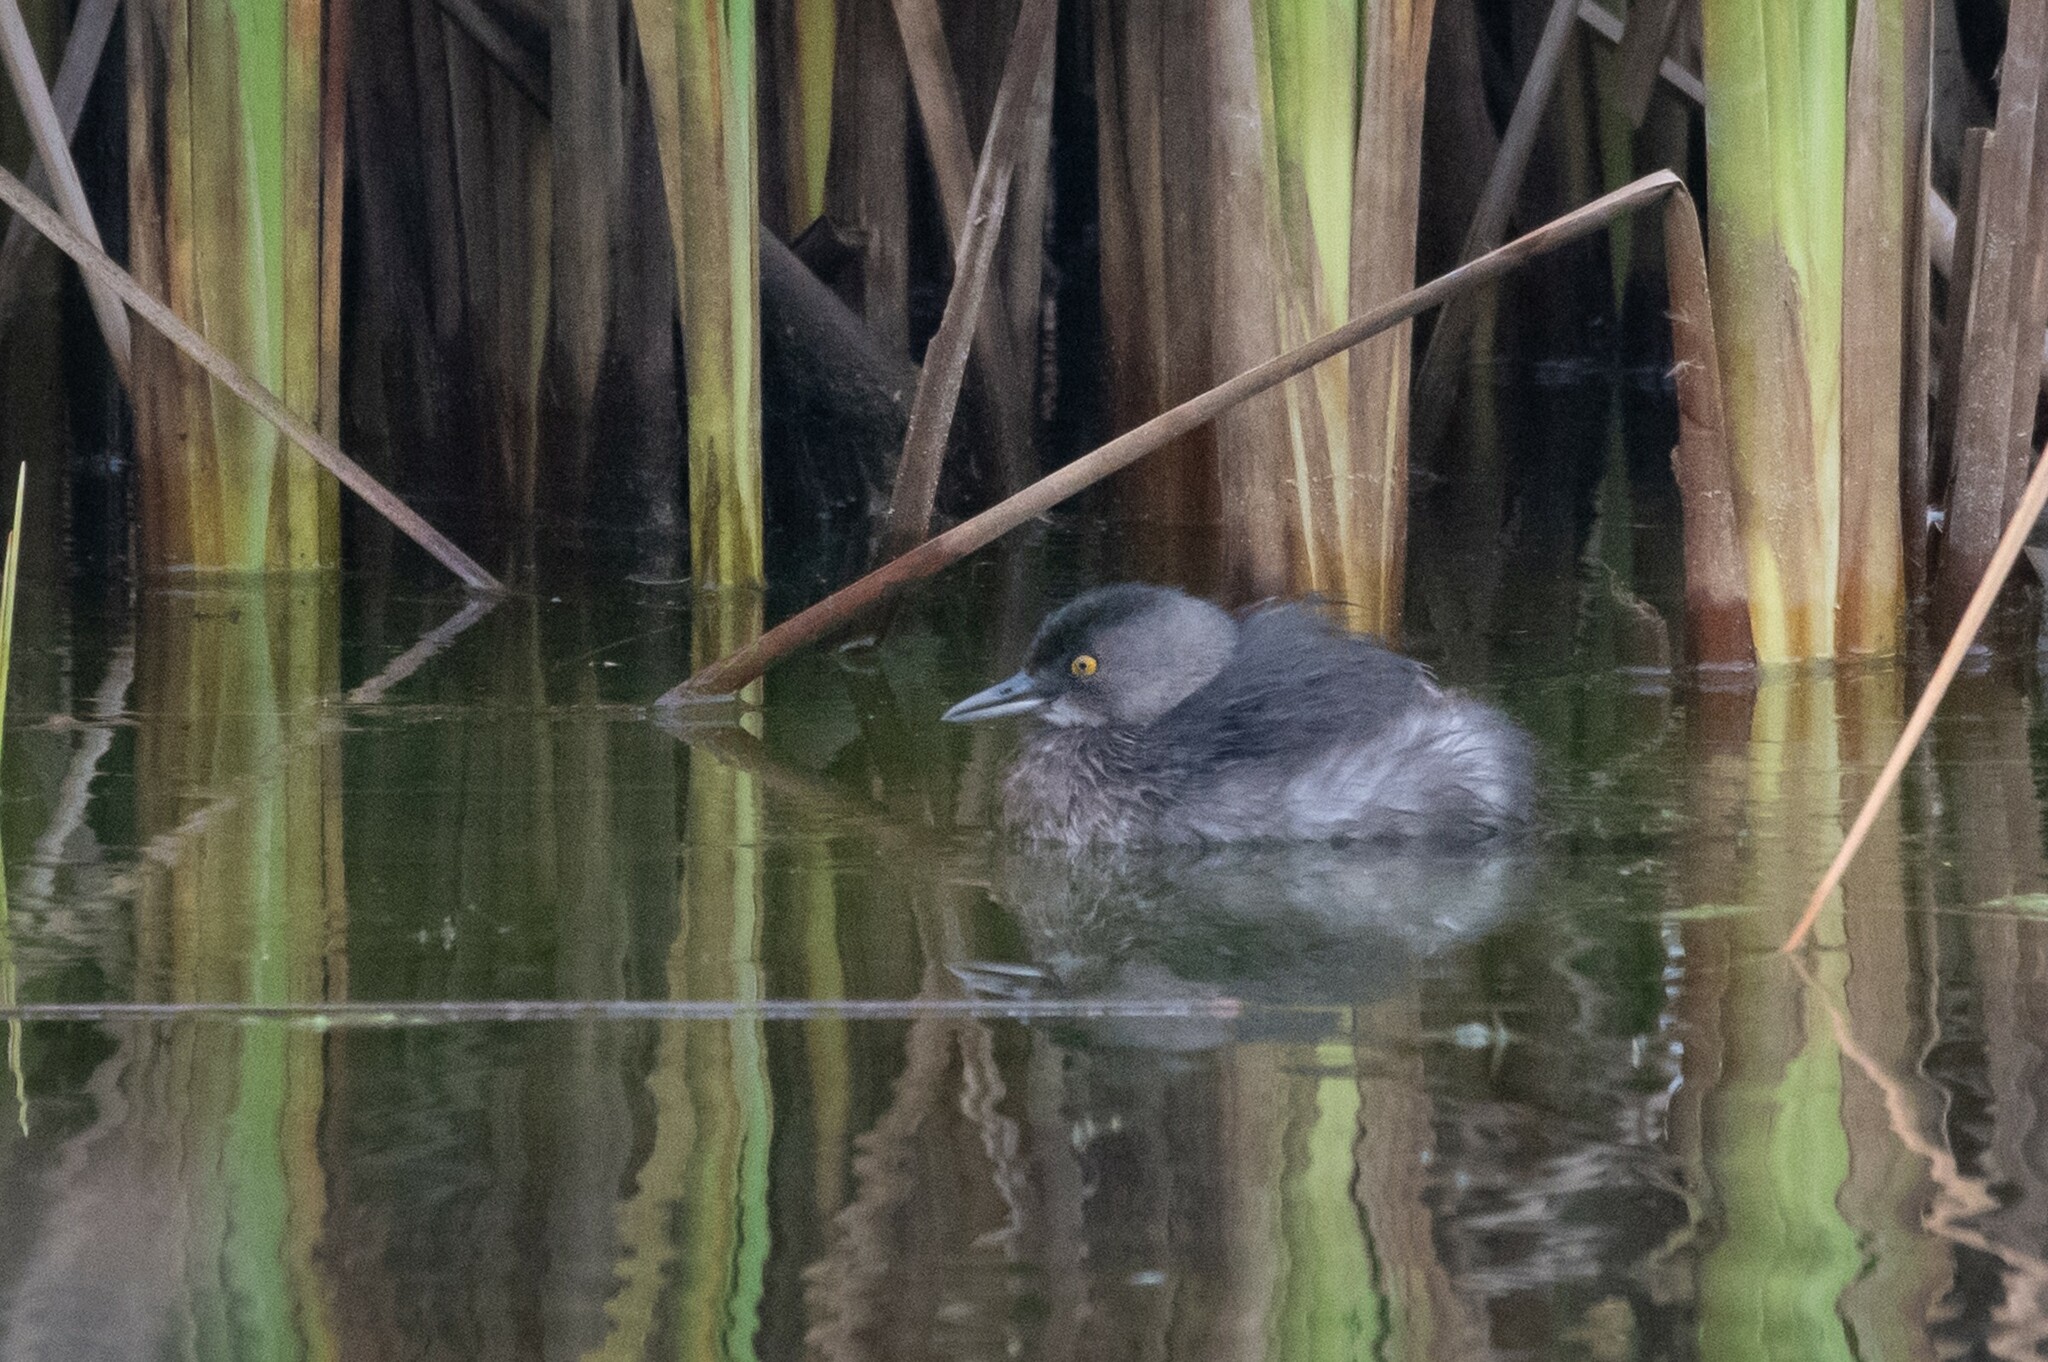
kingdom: Animalia
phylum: Chordata
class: Aves
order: Podicipediformes
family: Podicipedidae
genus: Tachybaptus
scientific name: Tachybaptus dominicus
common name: Least grebe
